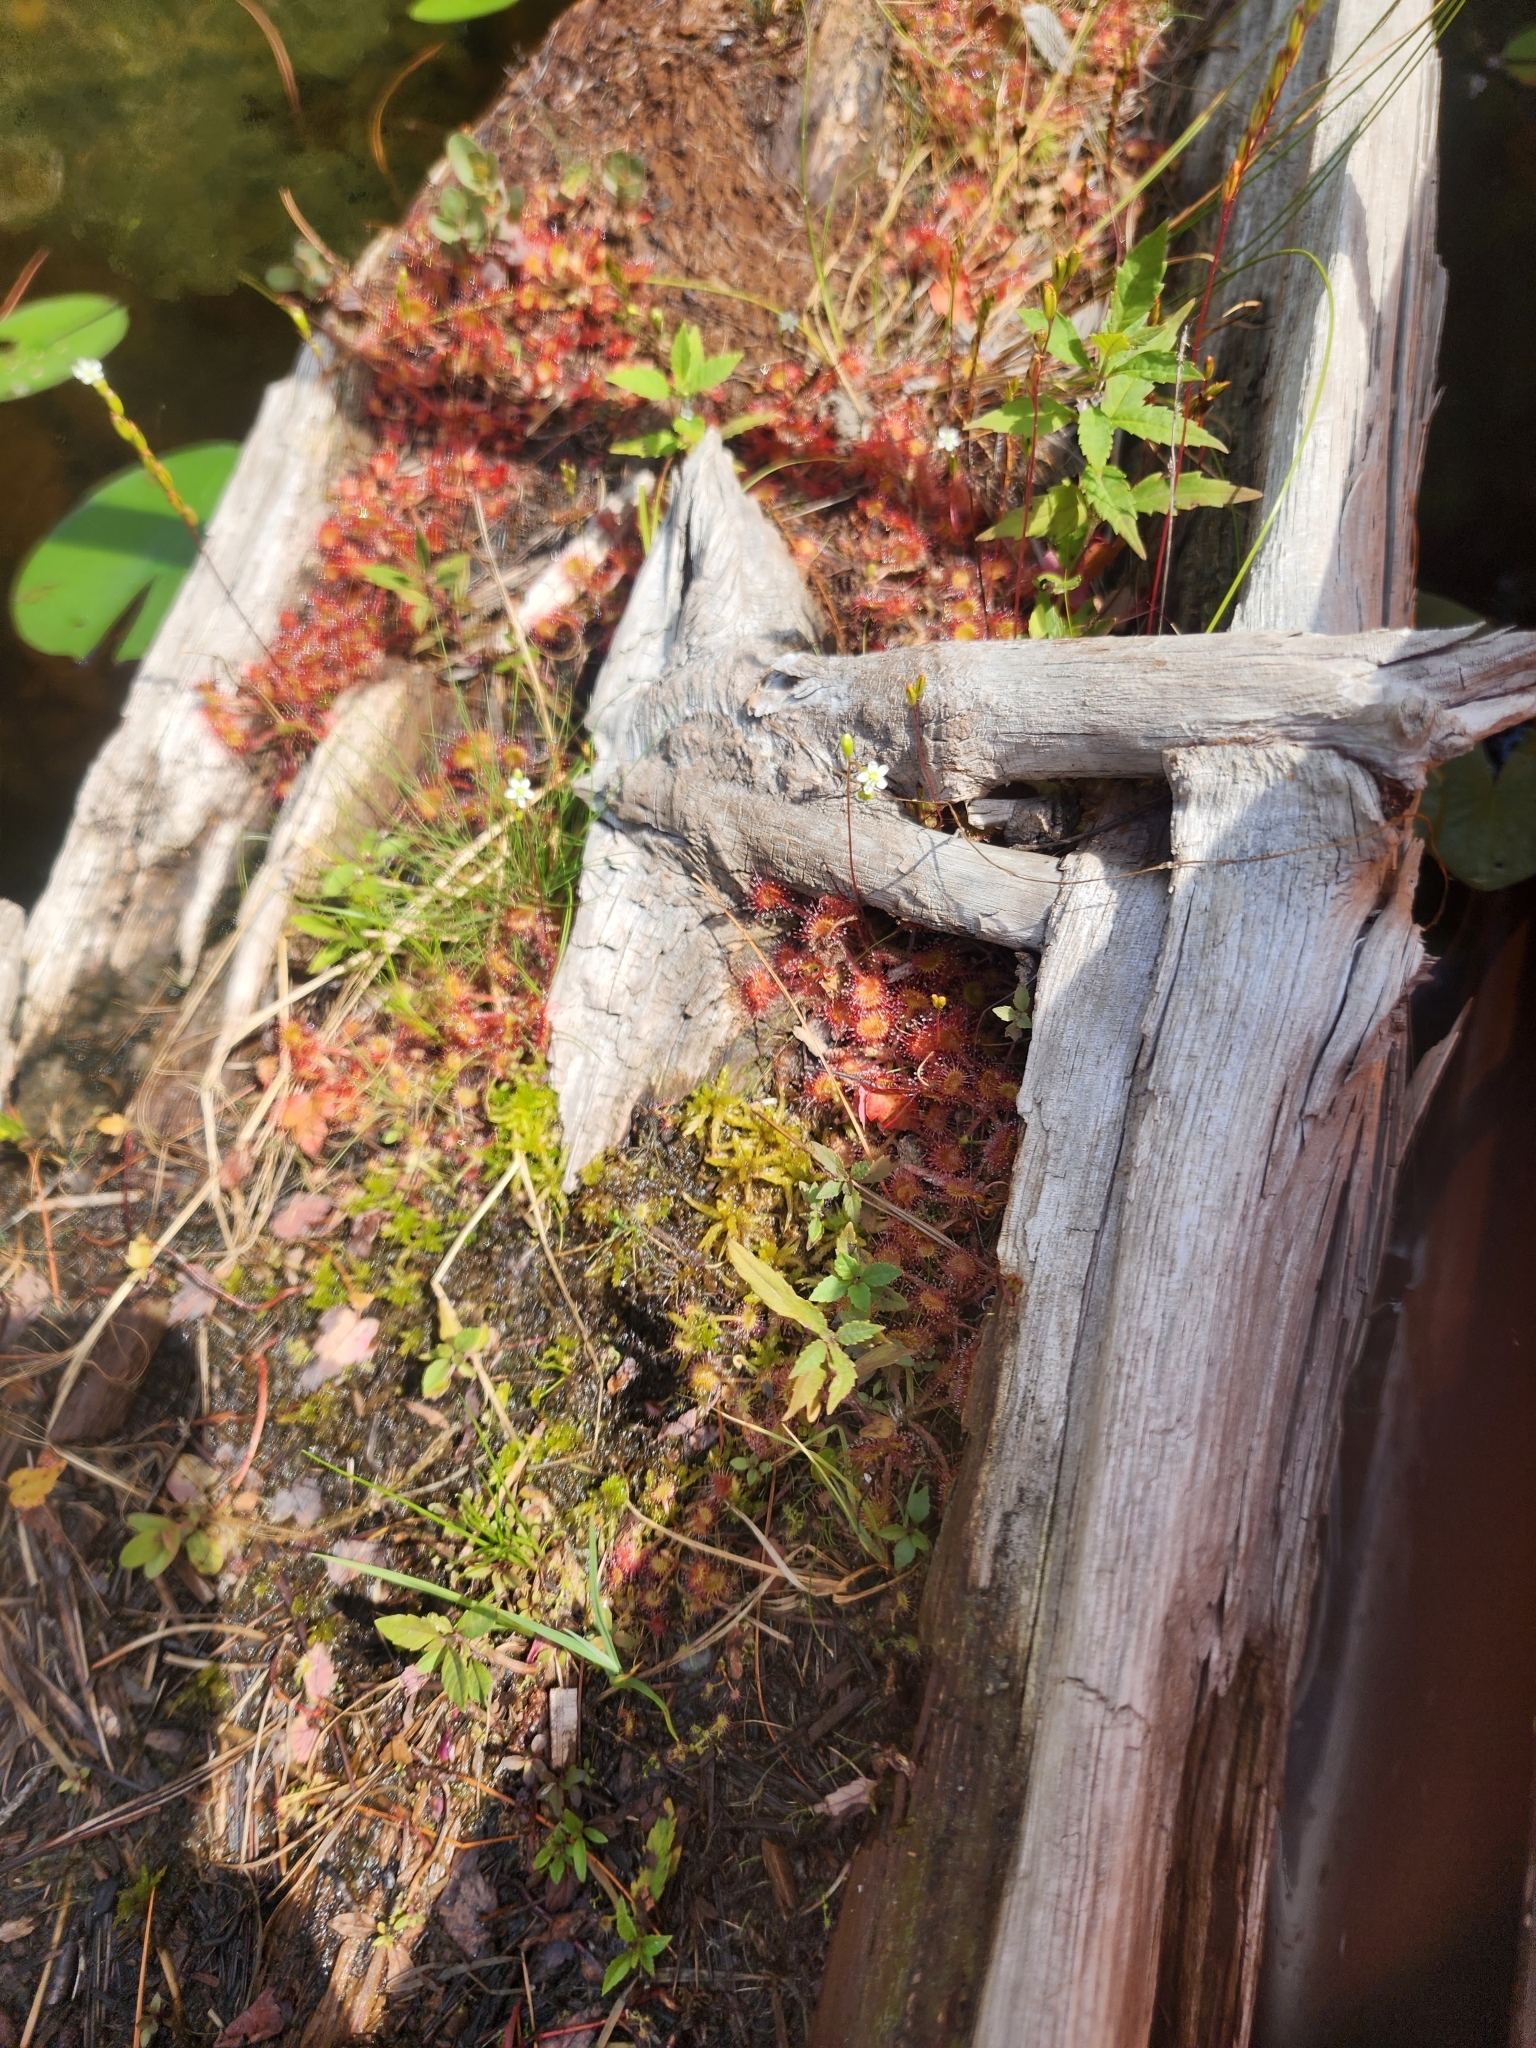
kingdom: Plantae
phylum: Tracheophyta
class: Magnoliopsida
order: Caryophyllales
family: Droseraceae
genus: Drosera
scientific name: Drosera rotundifolia
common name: Round-leaved sundew
